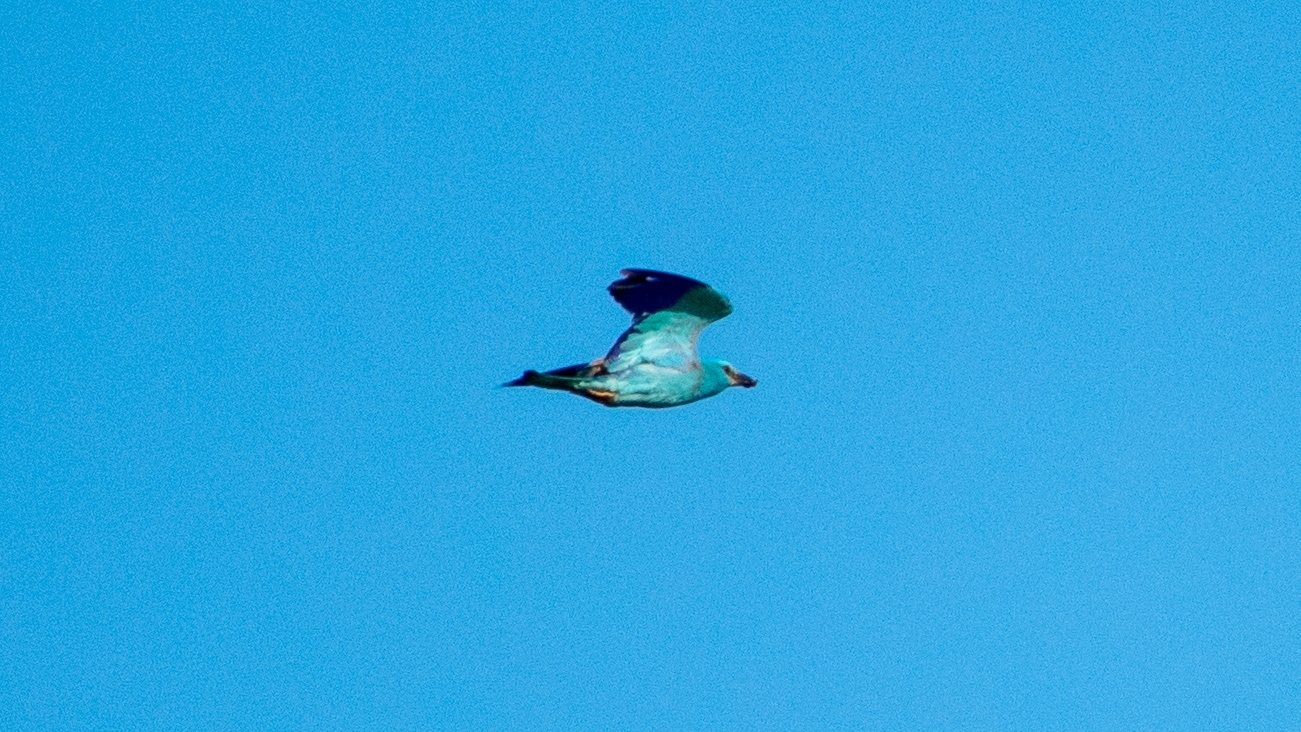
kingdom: Animalia
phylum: Chordata
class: Aves
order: Coraciiformes
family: Coraciidae
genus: Coracias
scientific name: Coracias garrulus
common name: European roller
